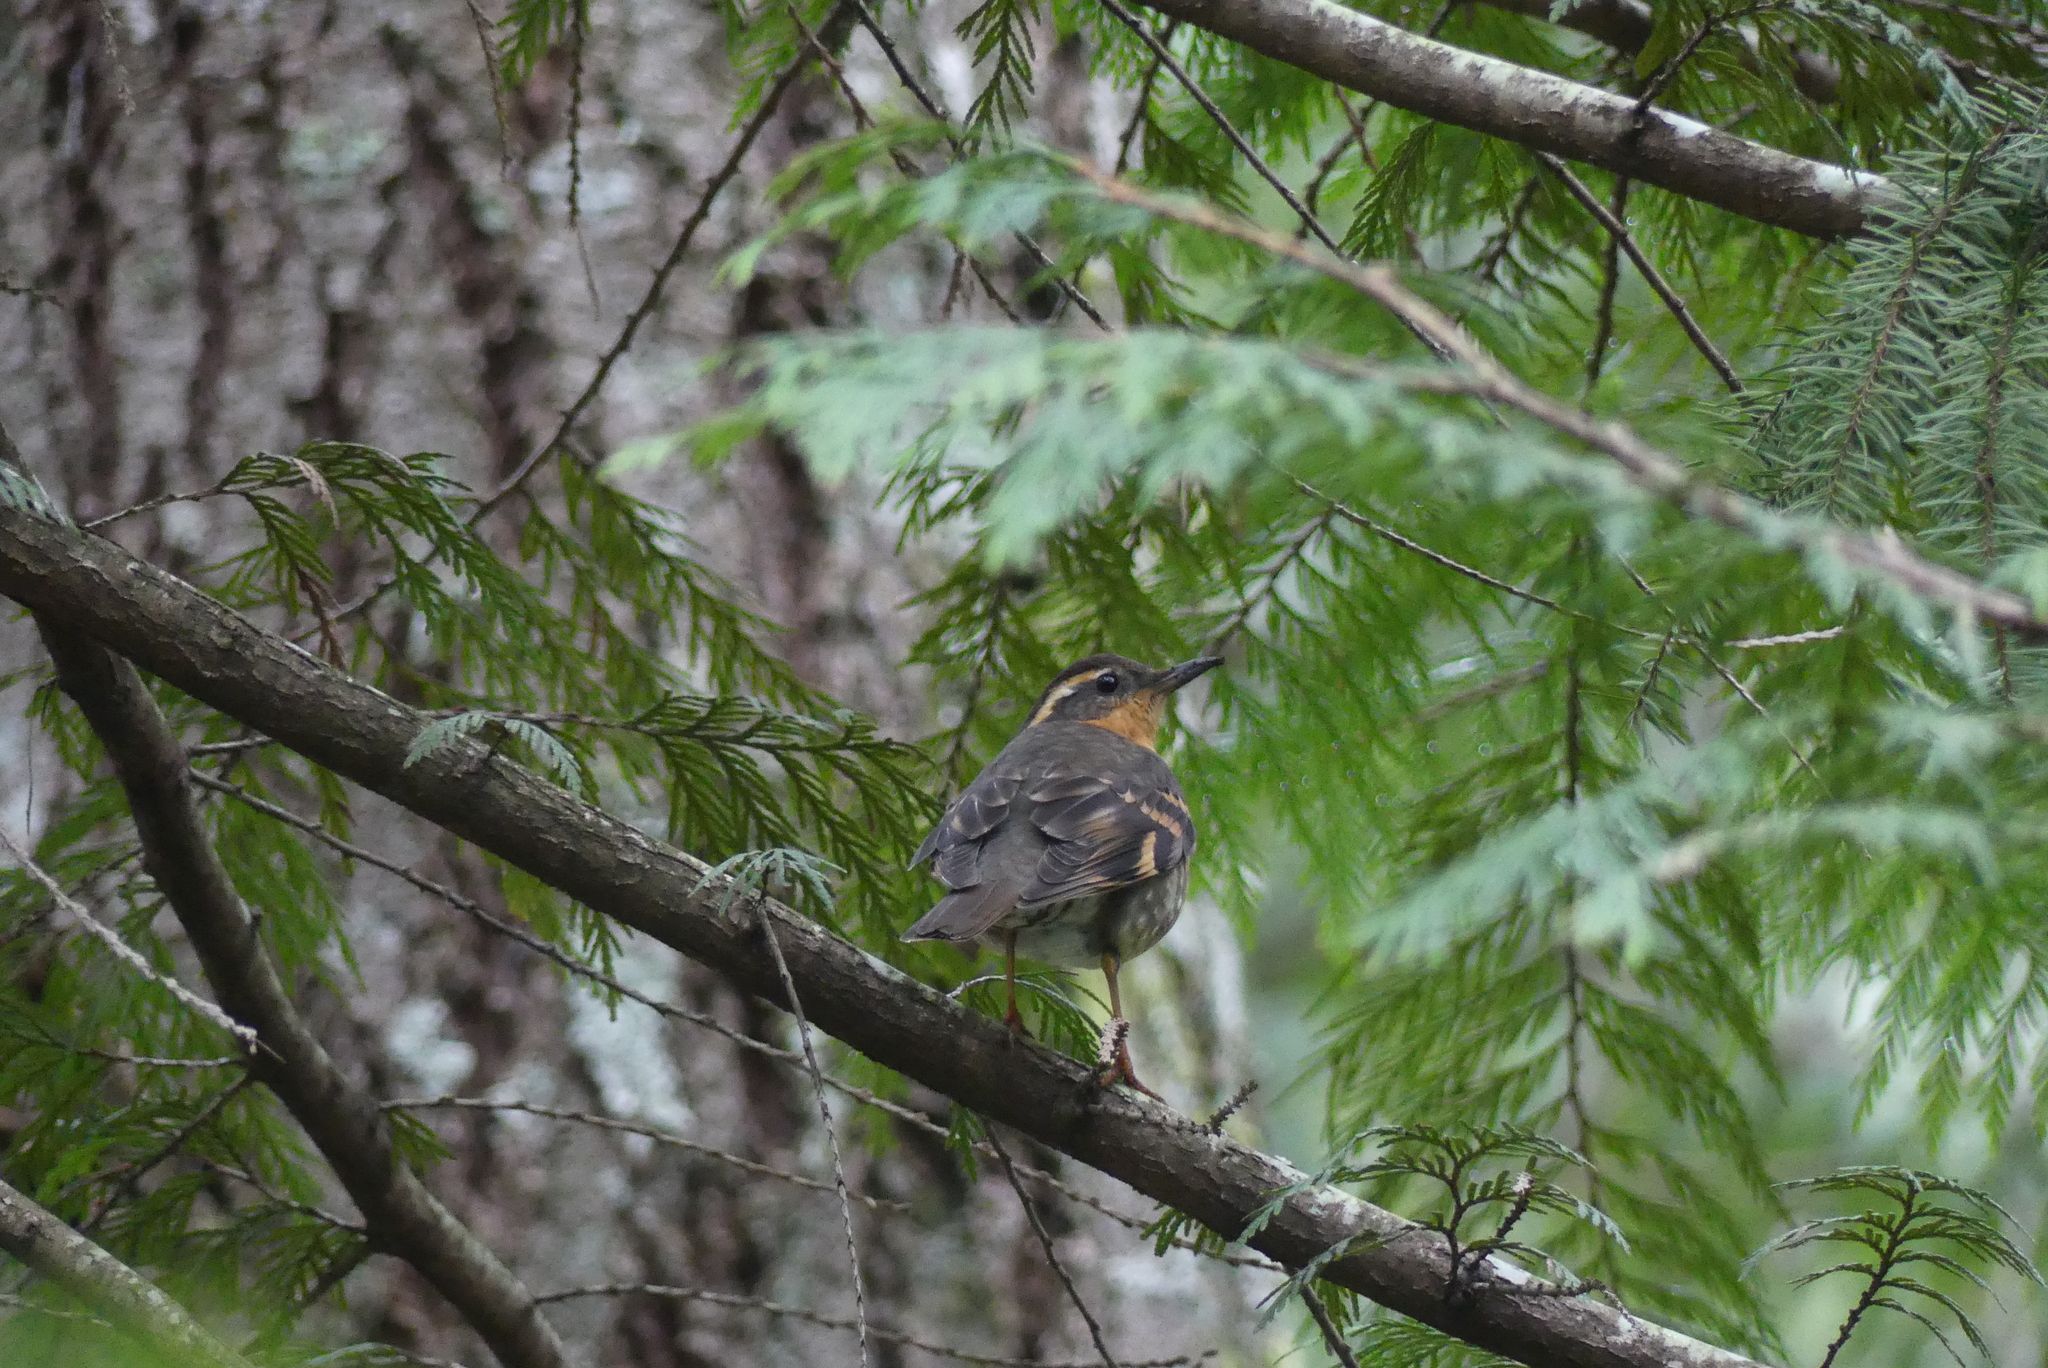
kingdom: Animalia
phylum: Chordata
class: Aves
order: Passeriformes
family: Turdidae
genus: Ixoreus
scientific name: Ixoreus naevius
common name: Varied thrush
